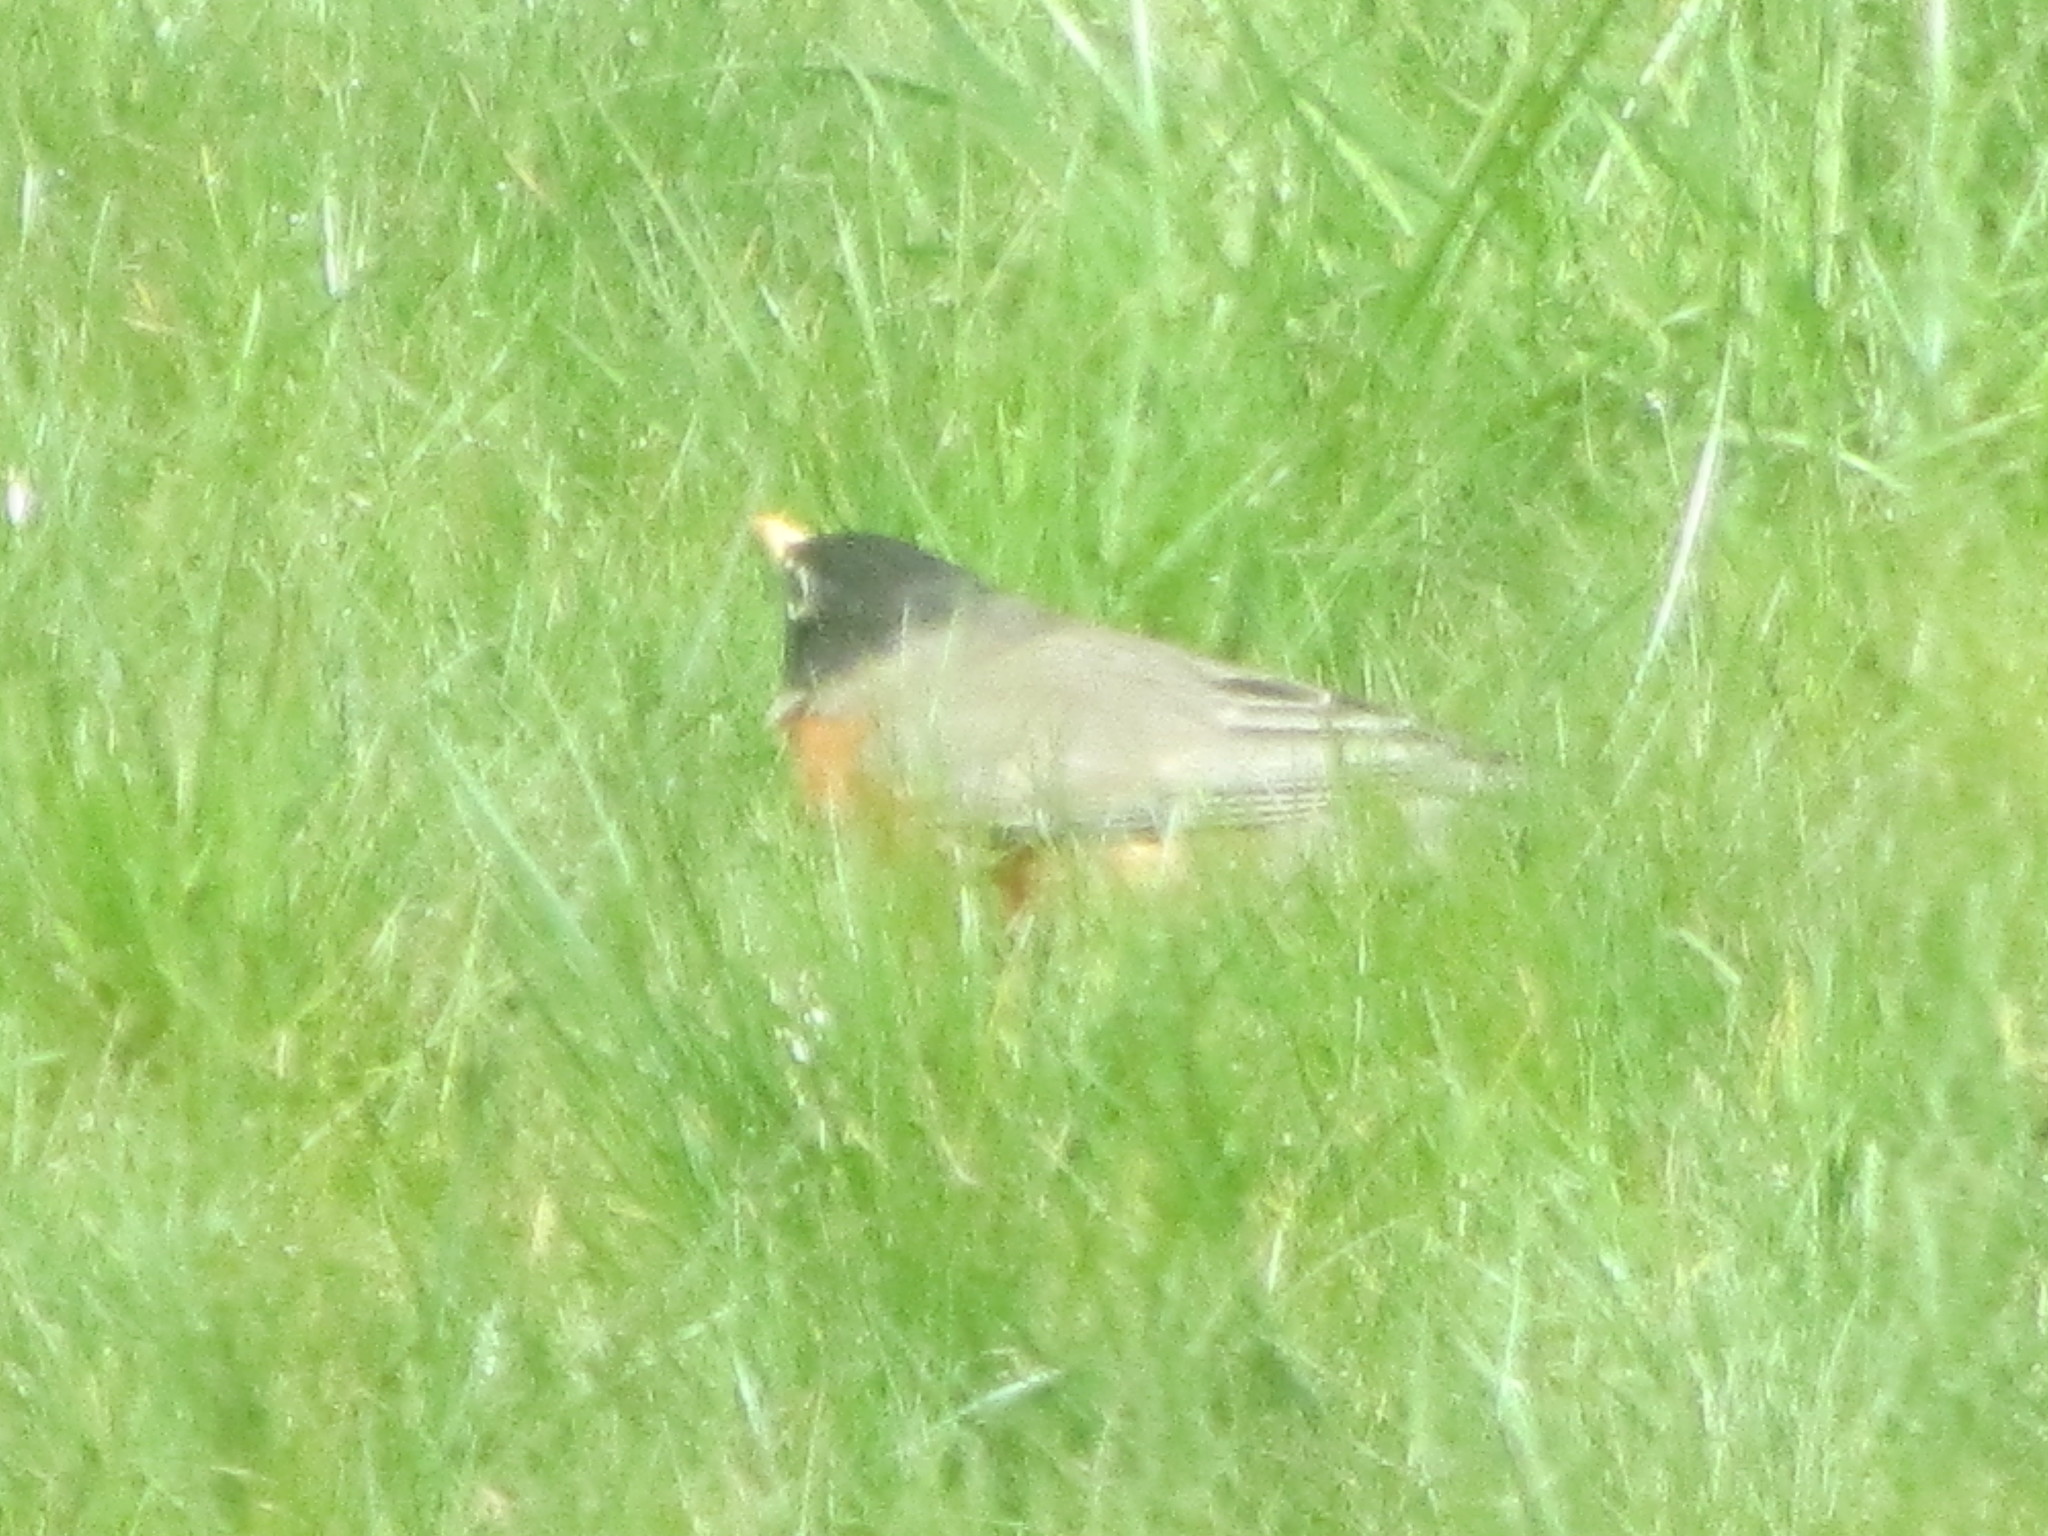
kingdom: Animalia
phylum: Chordata
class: Aves
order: Passeriformes
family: Turdidae
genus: Turdus
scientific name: Turdus migratorius
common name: American robin
